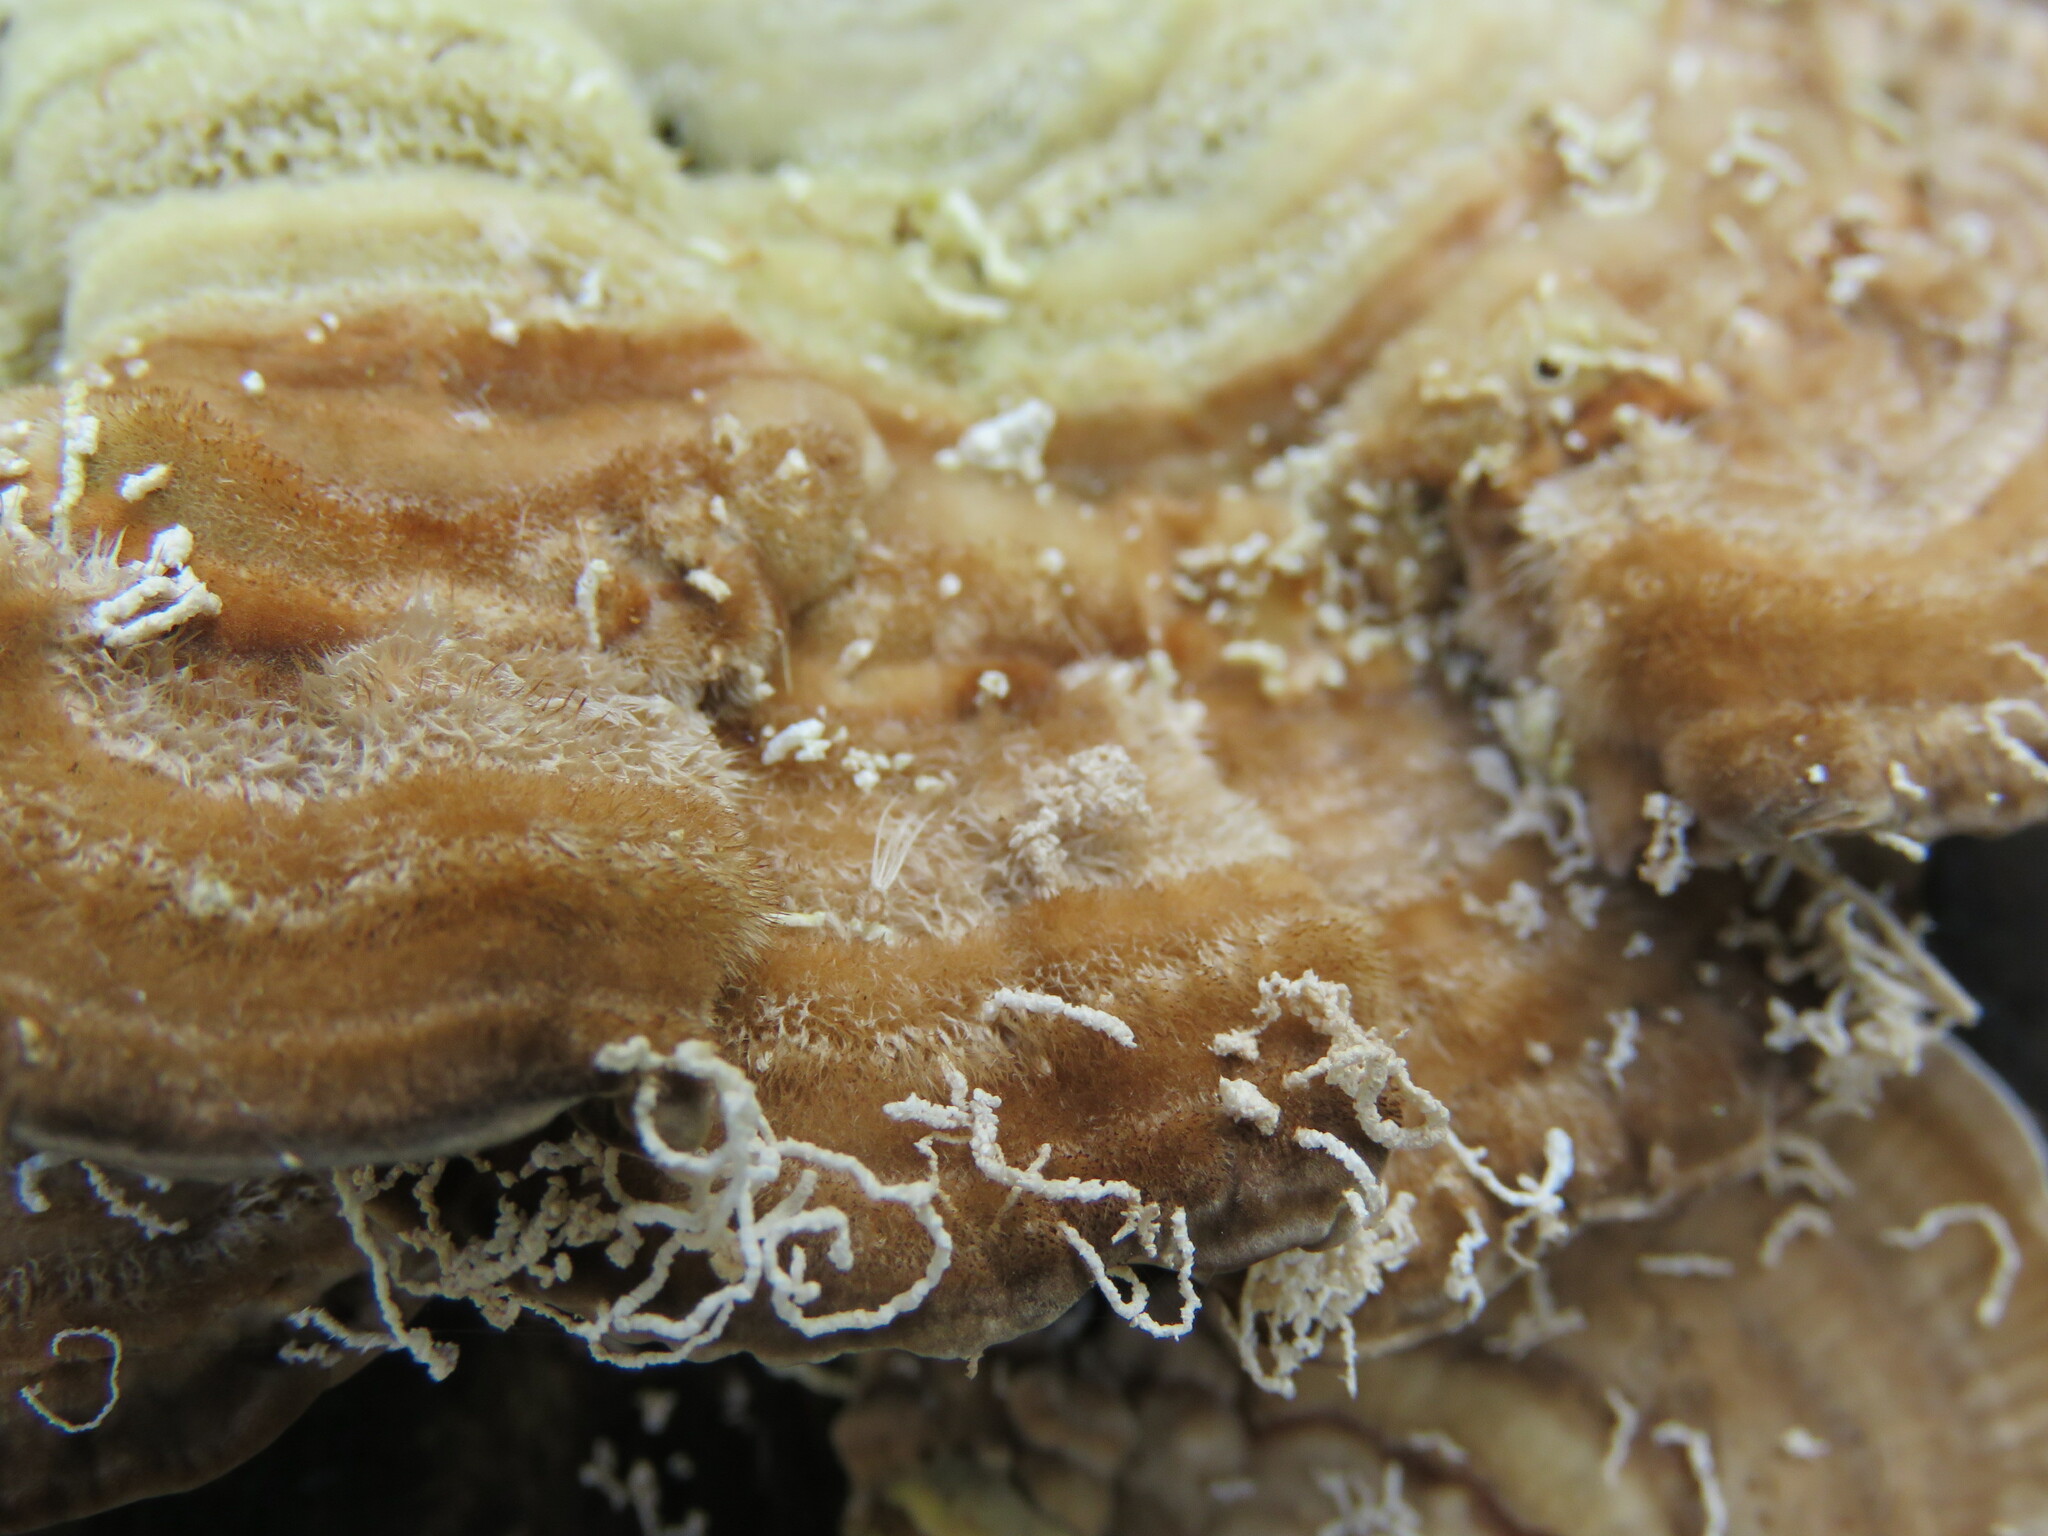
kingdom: Fungi
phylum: Basidiomycota
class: Agaricomycetes
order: Polyporales
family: Polyporaceae
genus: Lenzites
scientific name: Lenzites betulinus
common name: Birch mazegill
